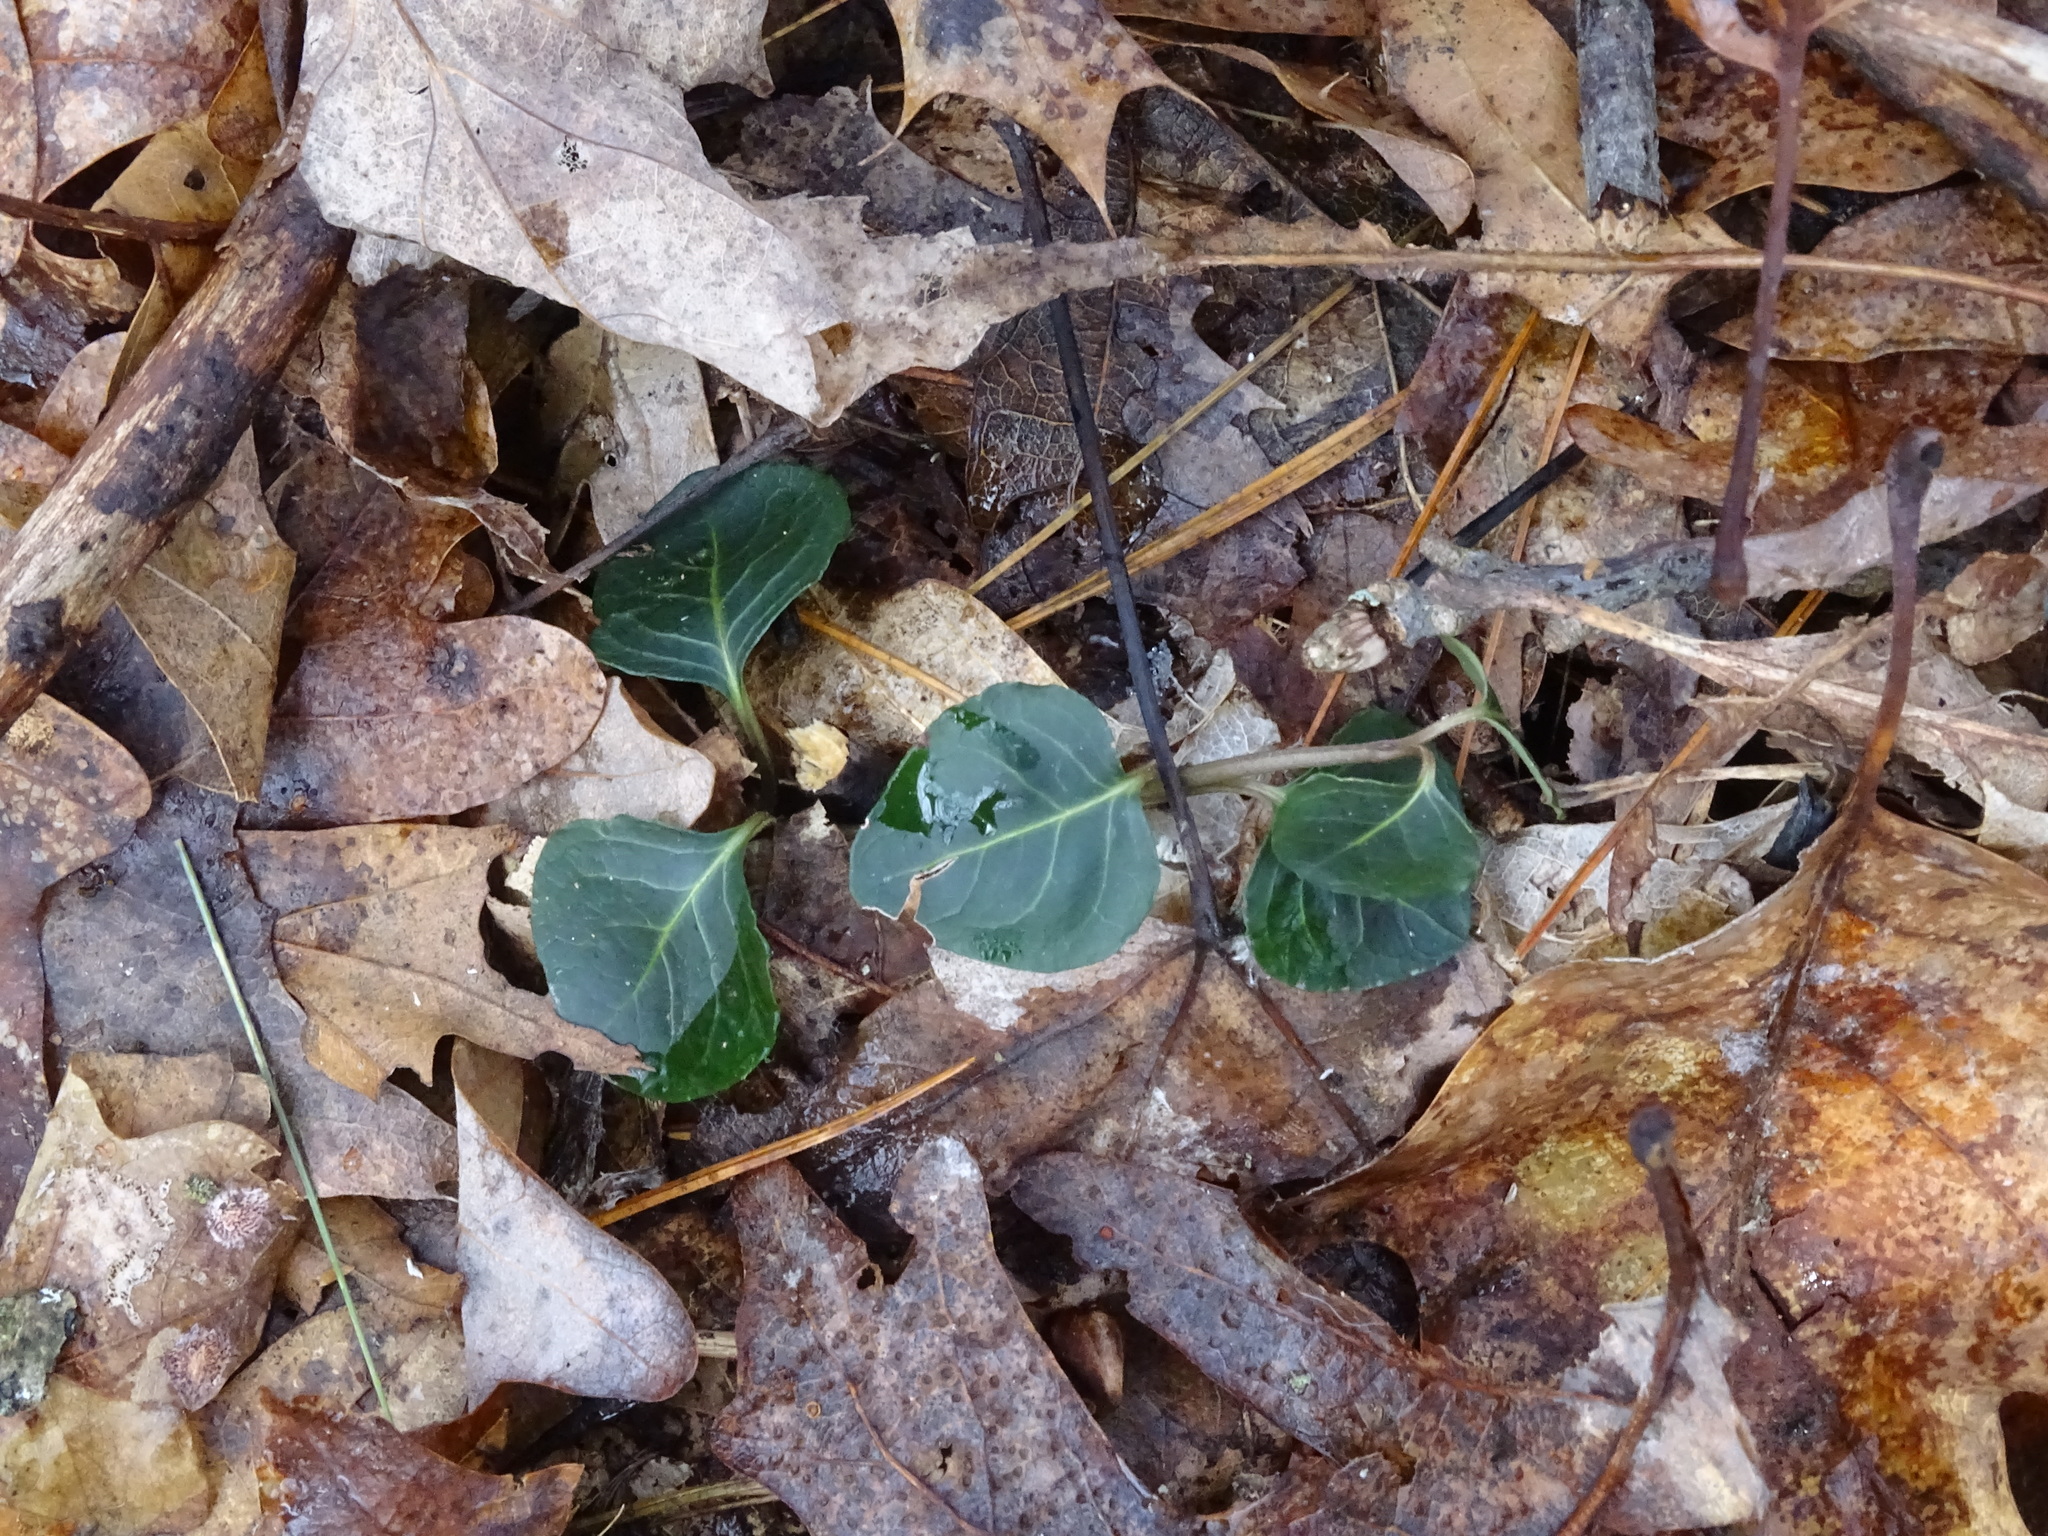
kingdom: Plantae
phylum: Tracheophyta
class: Magnoliopsida
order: Gentianales
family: Rubiaceae
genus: Mitchella
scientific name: Mitchella repens
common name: Partridge-berry
